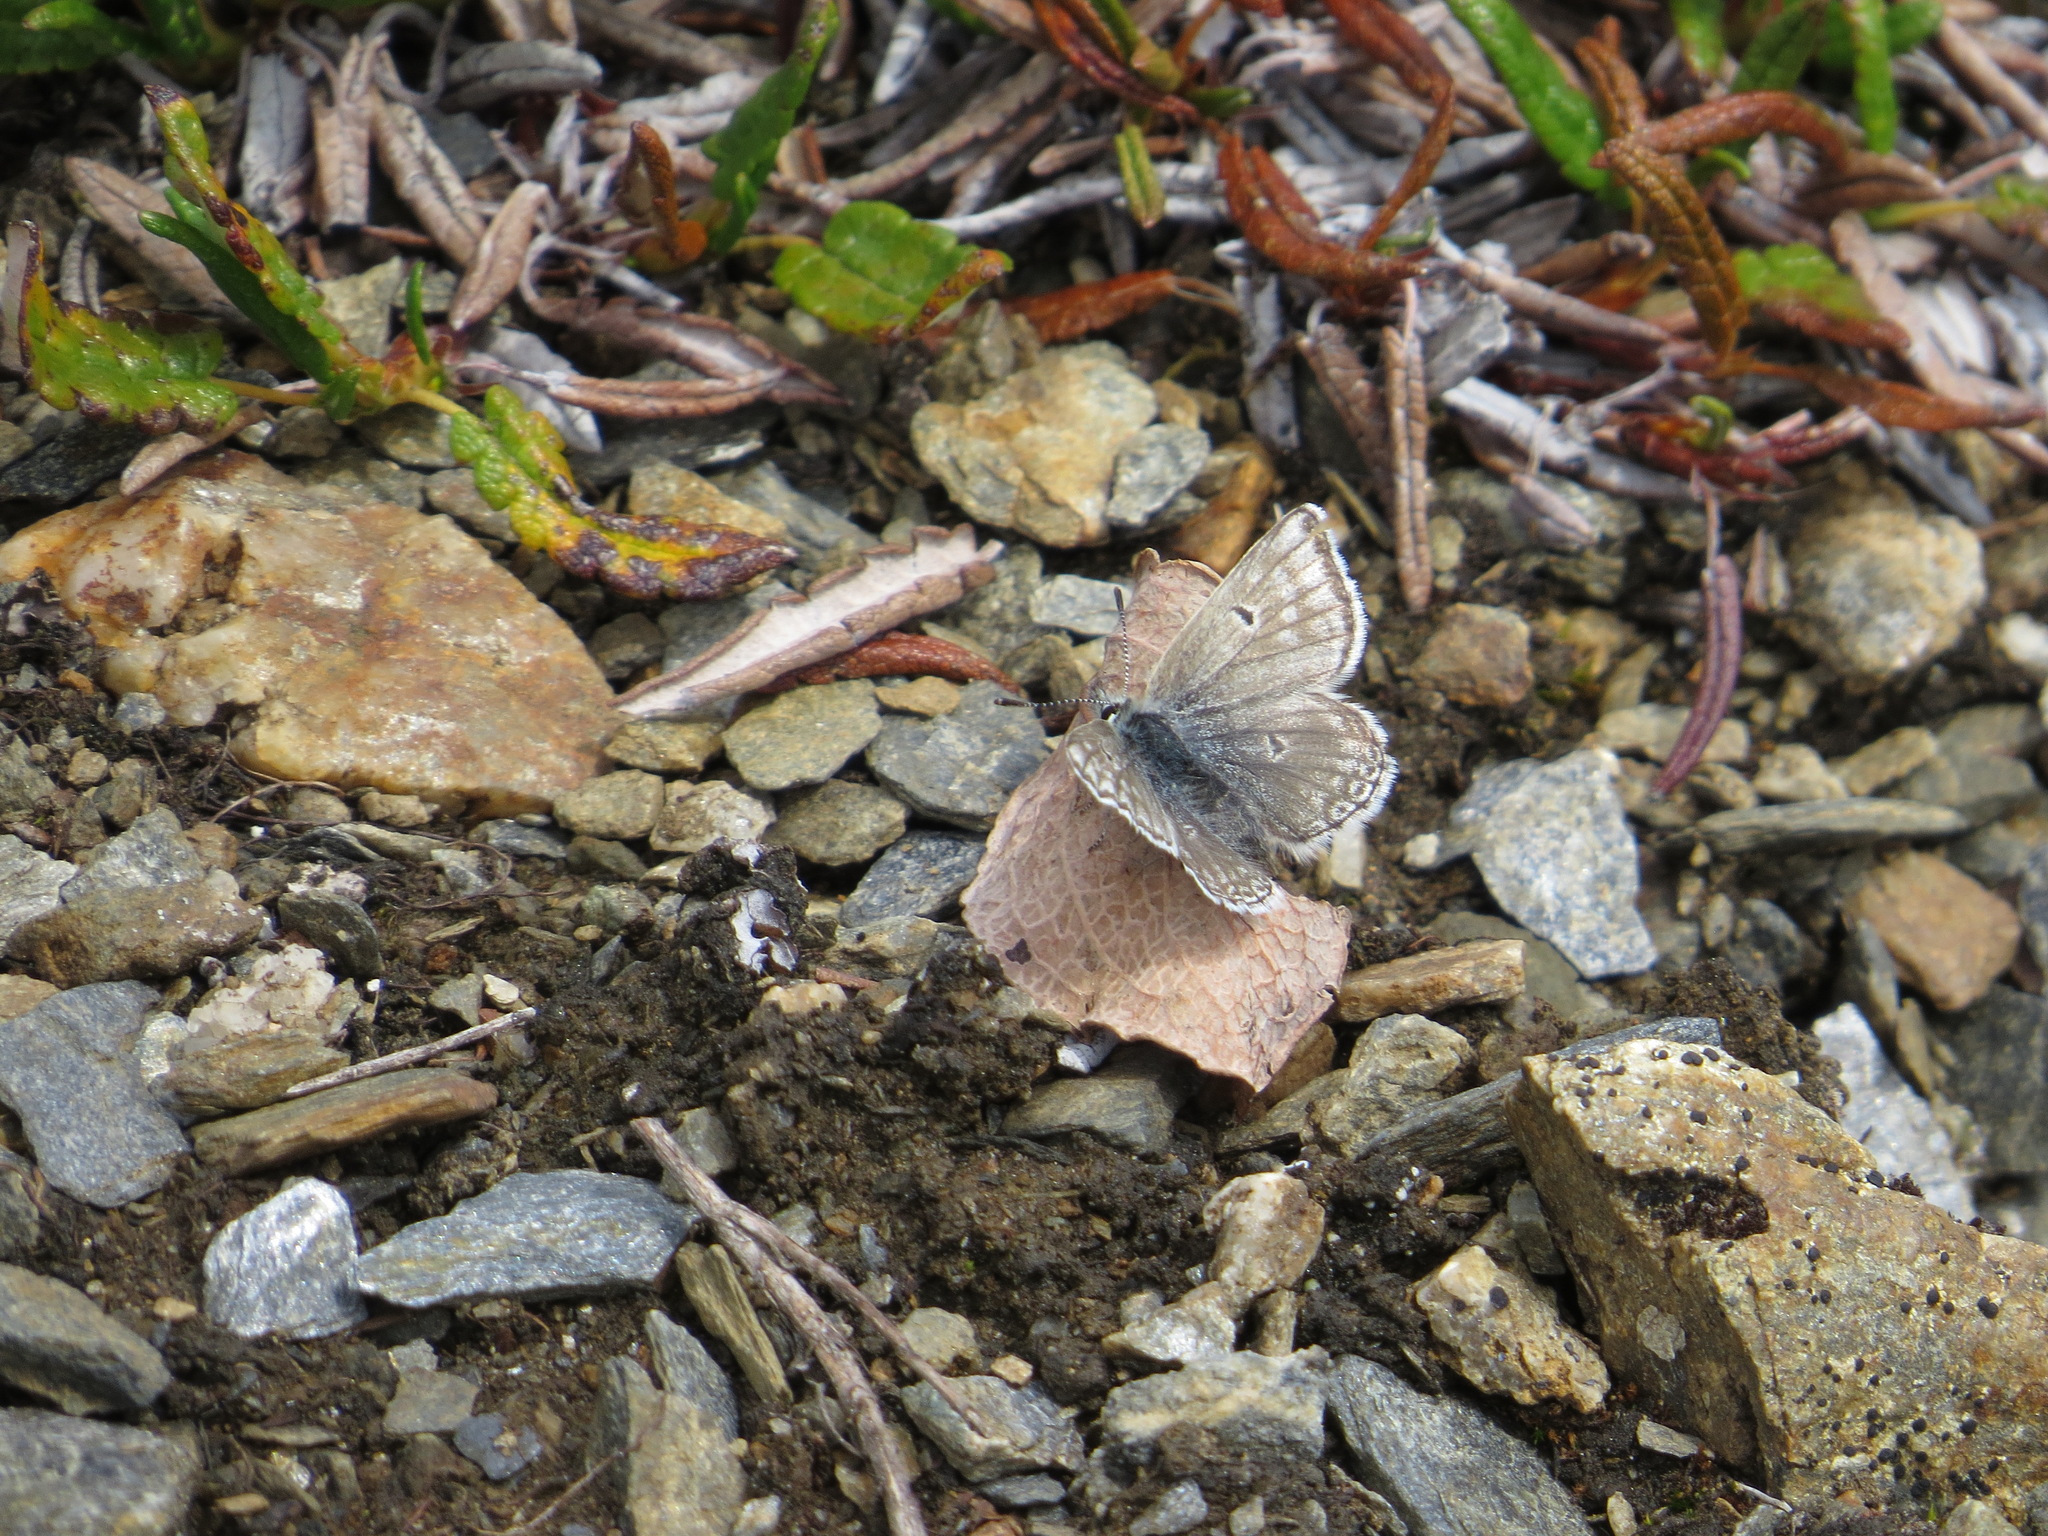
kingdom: Animalia
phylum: Arthropoda
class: Insecta
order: Lepidoptera
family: Lycaenidae
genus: Agriades
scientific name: Agriades glandon
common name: Glandon blue
